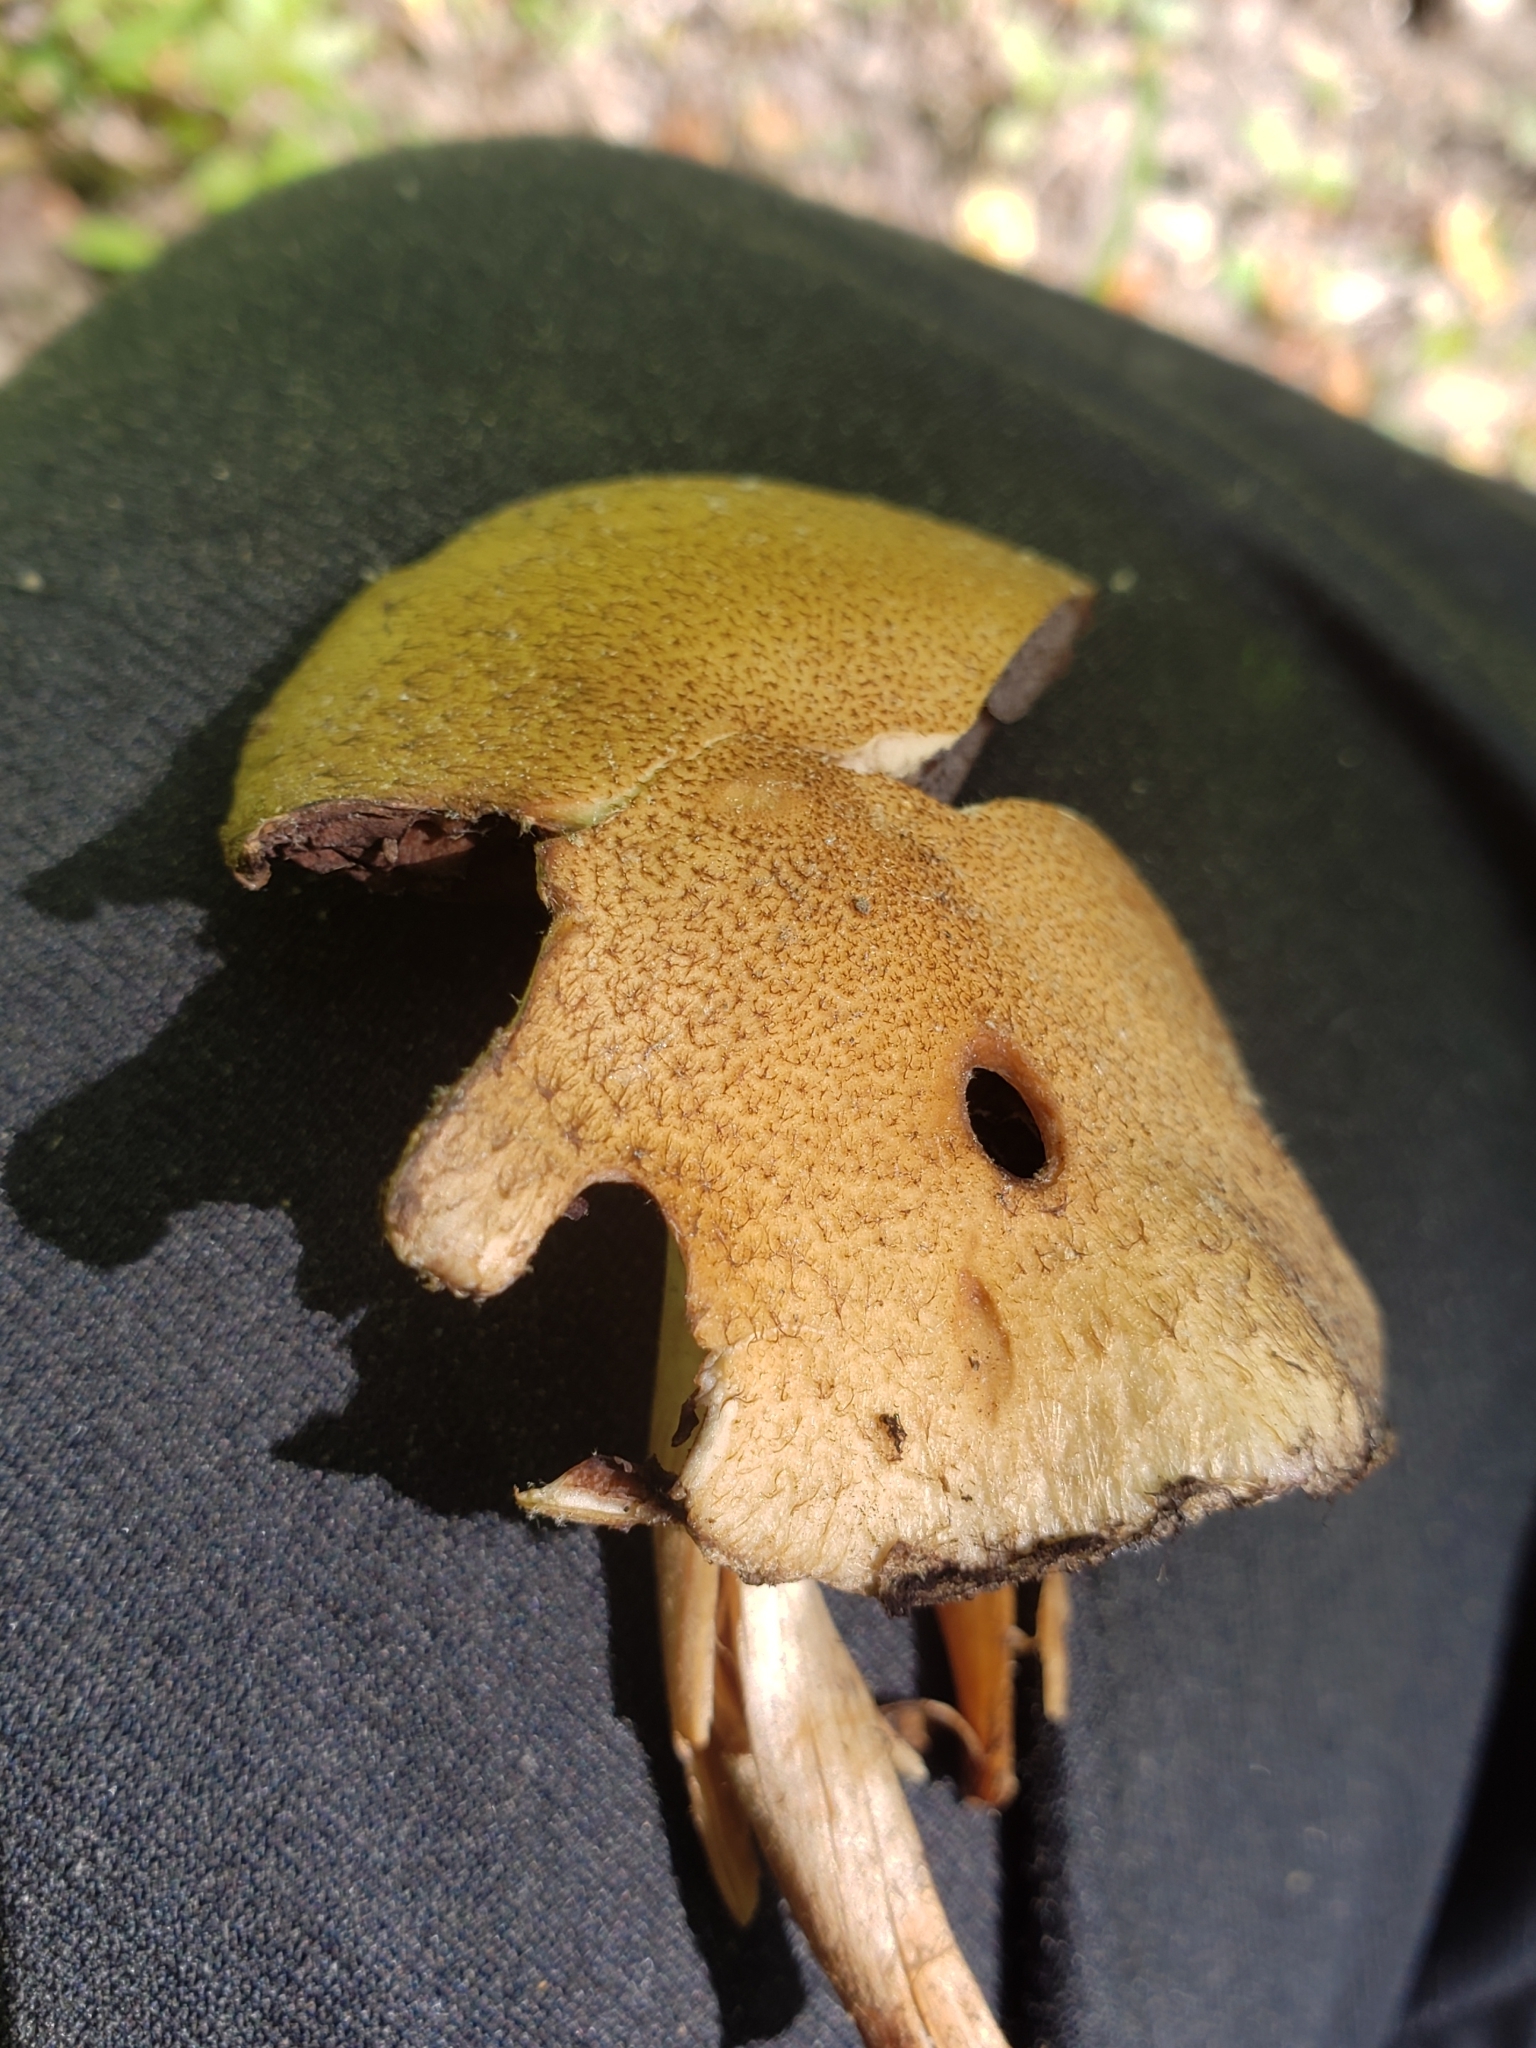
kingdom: Fungi
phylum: Basidiomycota
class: Agaricomycetes
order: Agaricales
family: Psathyrellaceae
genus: Lacrymaria
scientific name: Lacrymaria lacrymabunda
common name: Weeping widow
